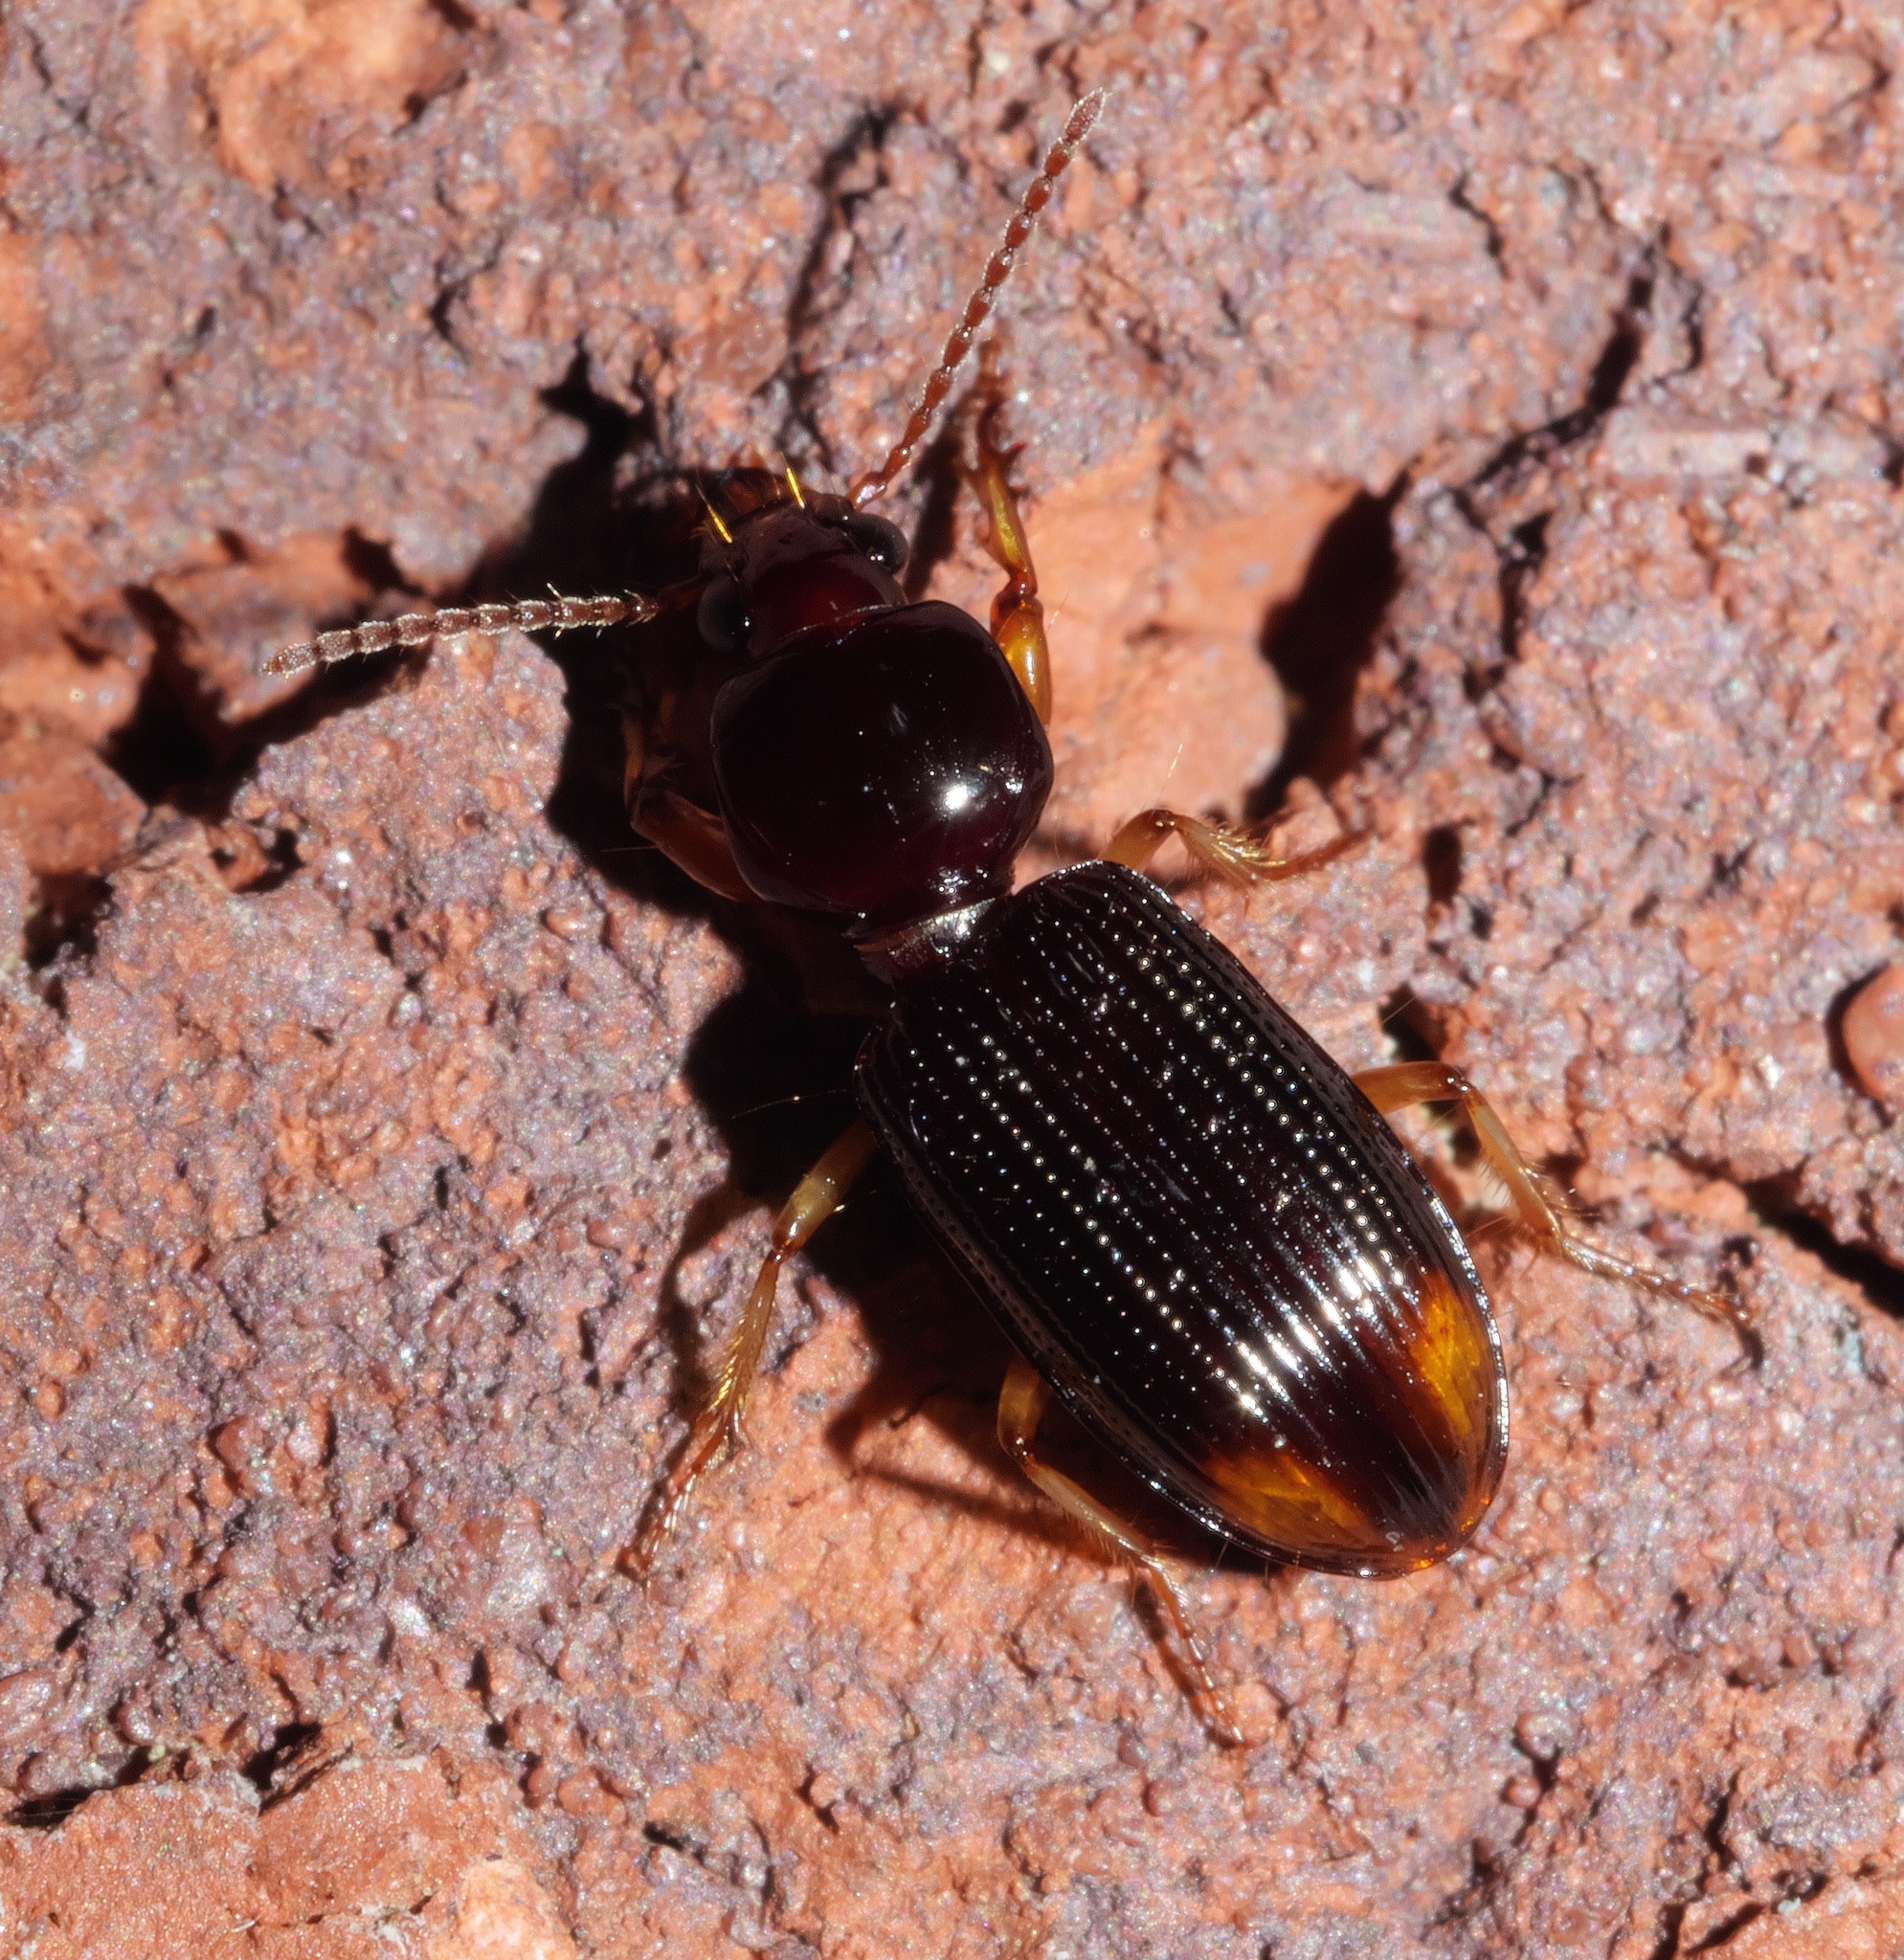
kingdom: Animalia
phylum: Arthropoda
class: Insecta
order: Coleoptera
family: Carabidae
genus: Aspidoglossa
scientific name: Aspidoglossa subangulata
